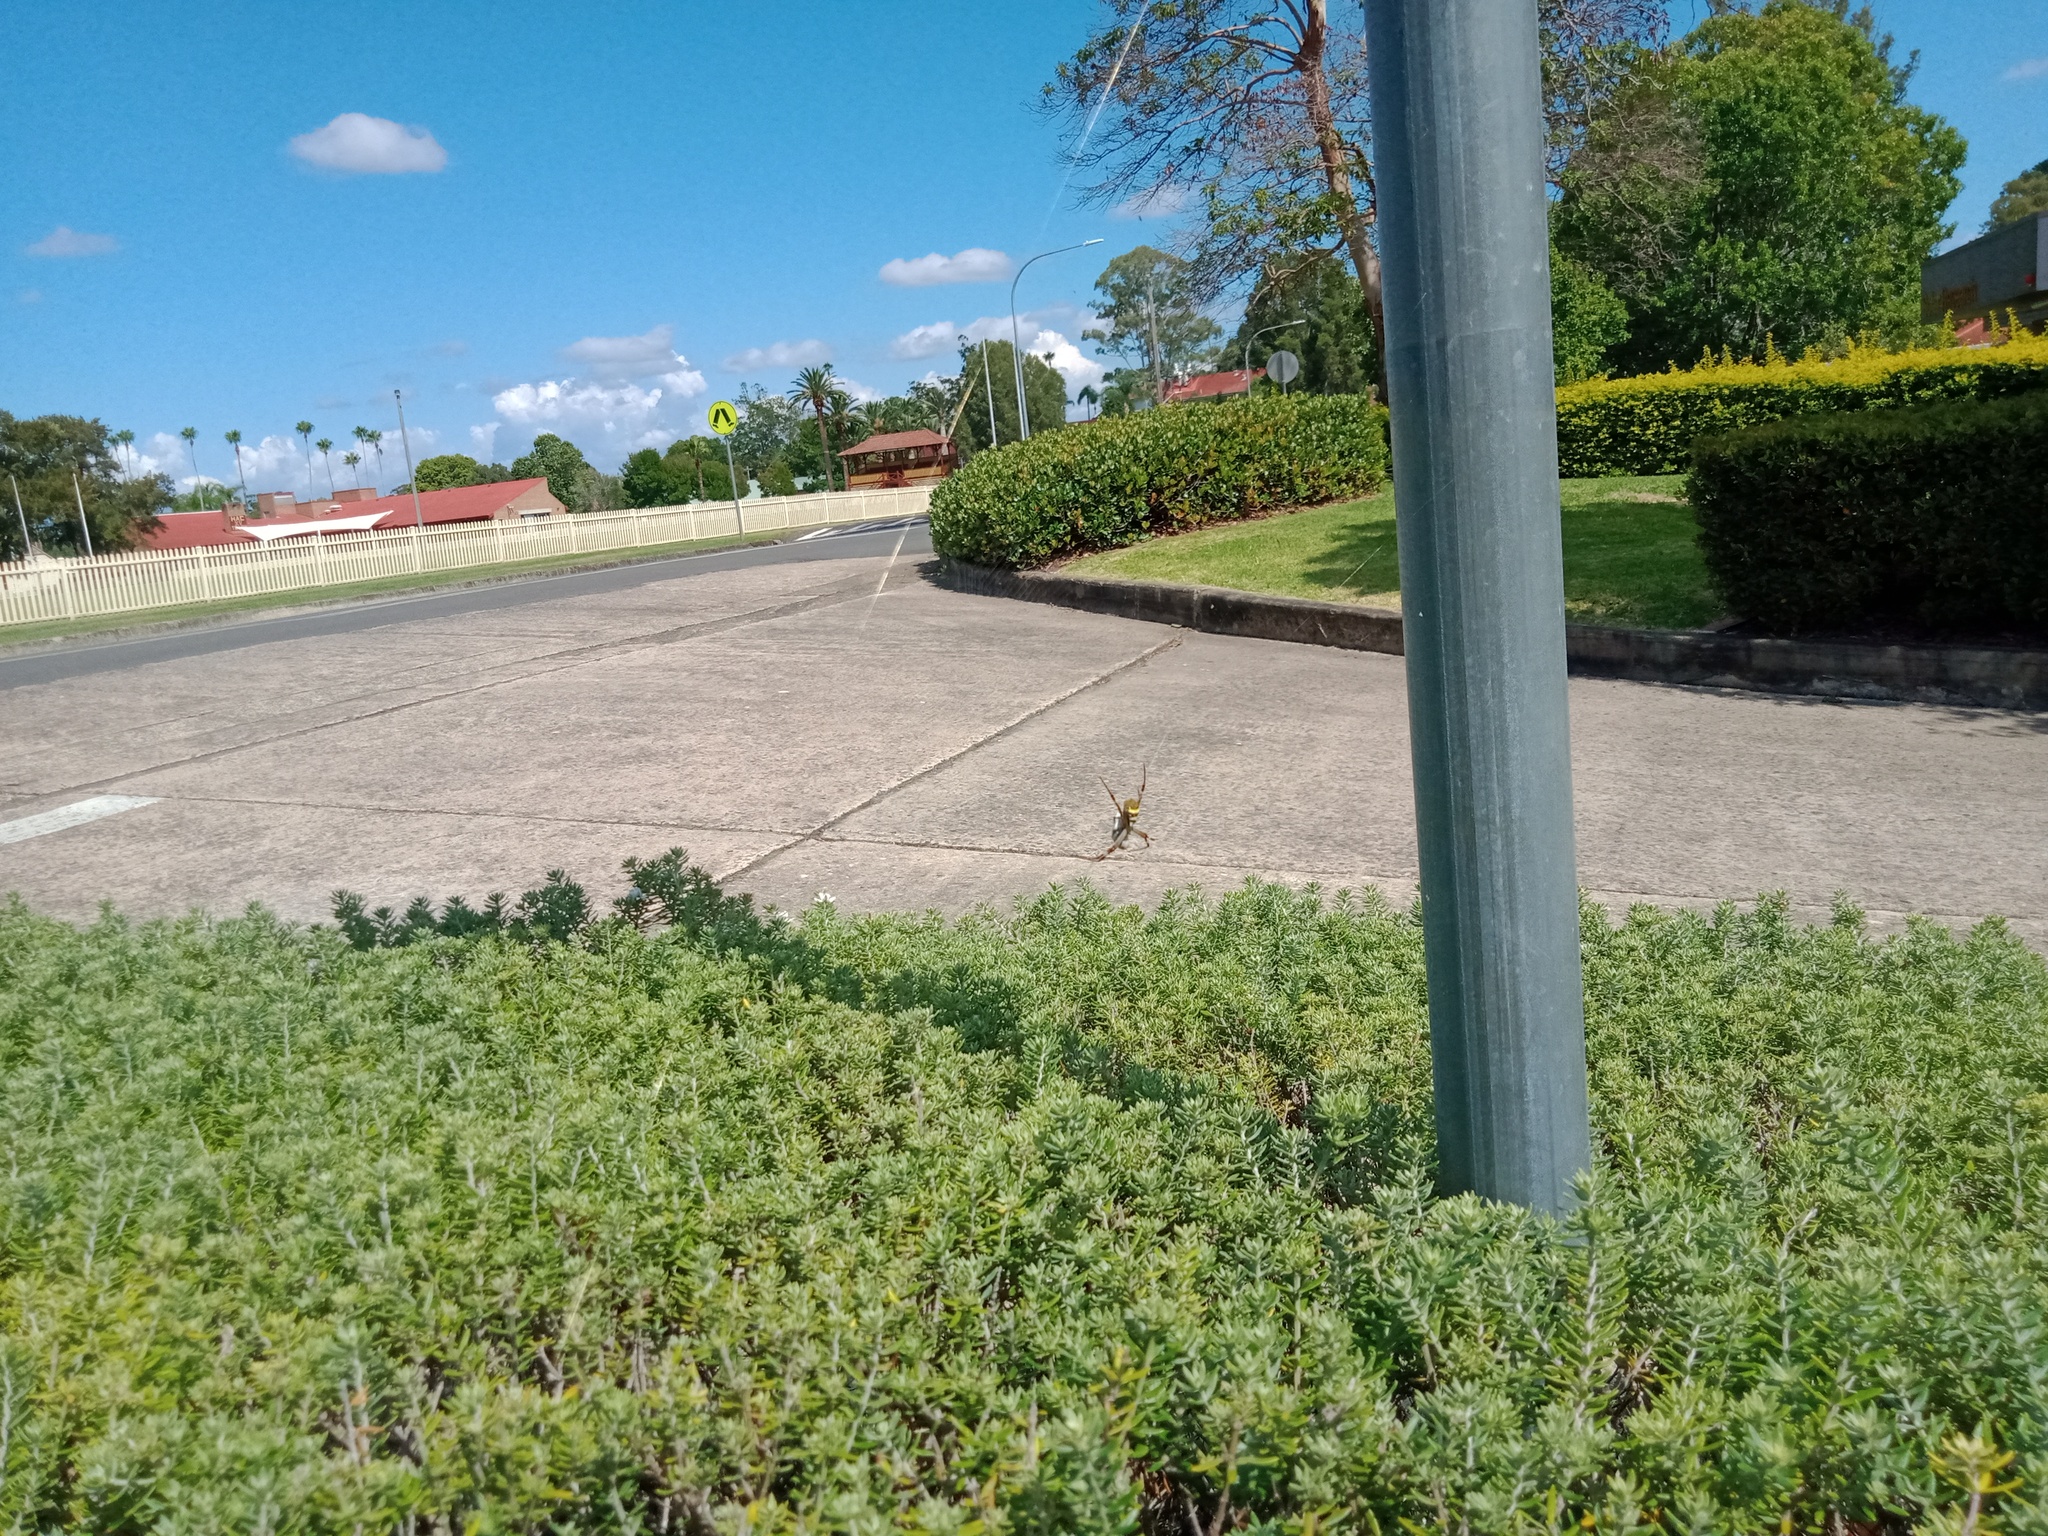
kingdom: Animalia
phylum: Arthropoda
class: Arachnida
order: Araneae
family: Araneidae
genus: Argiope
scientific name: Argiope keyserlingi
